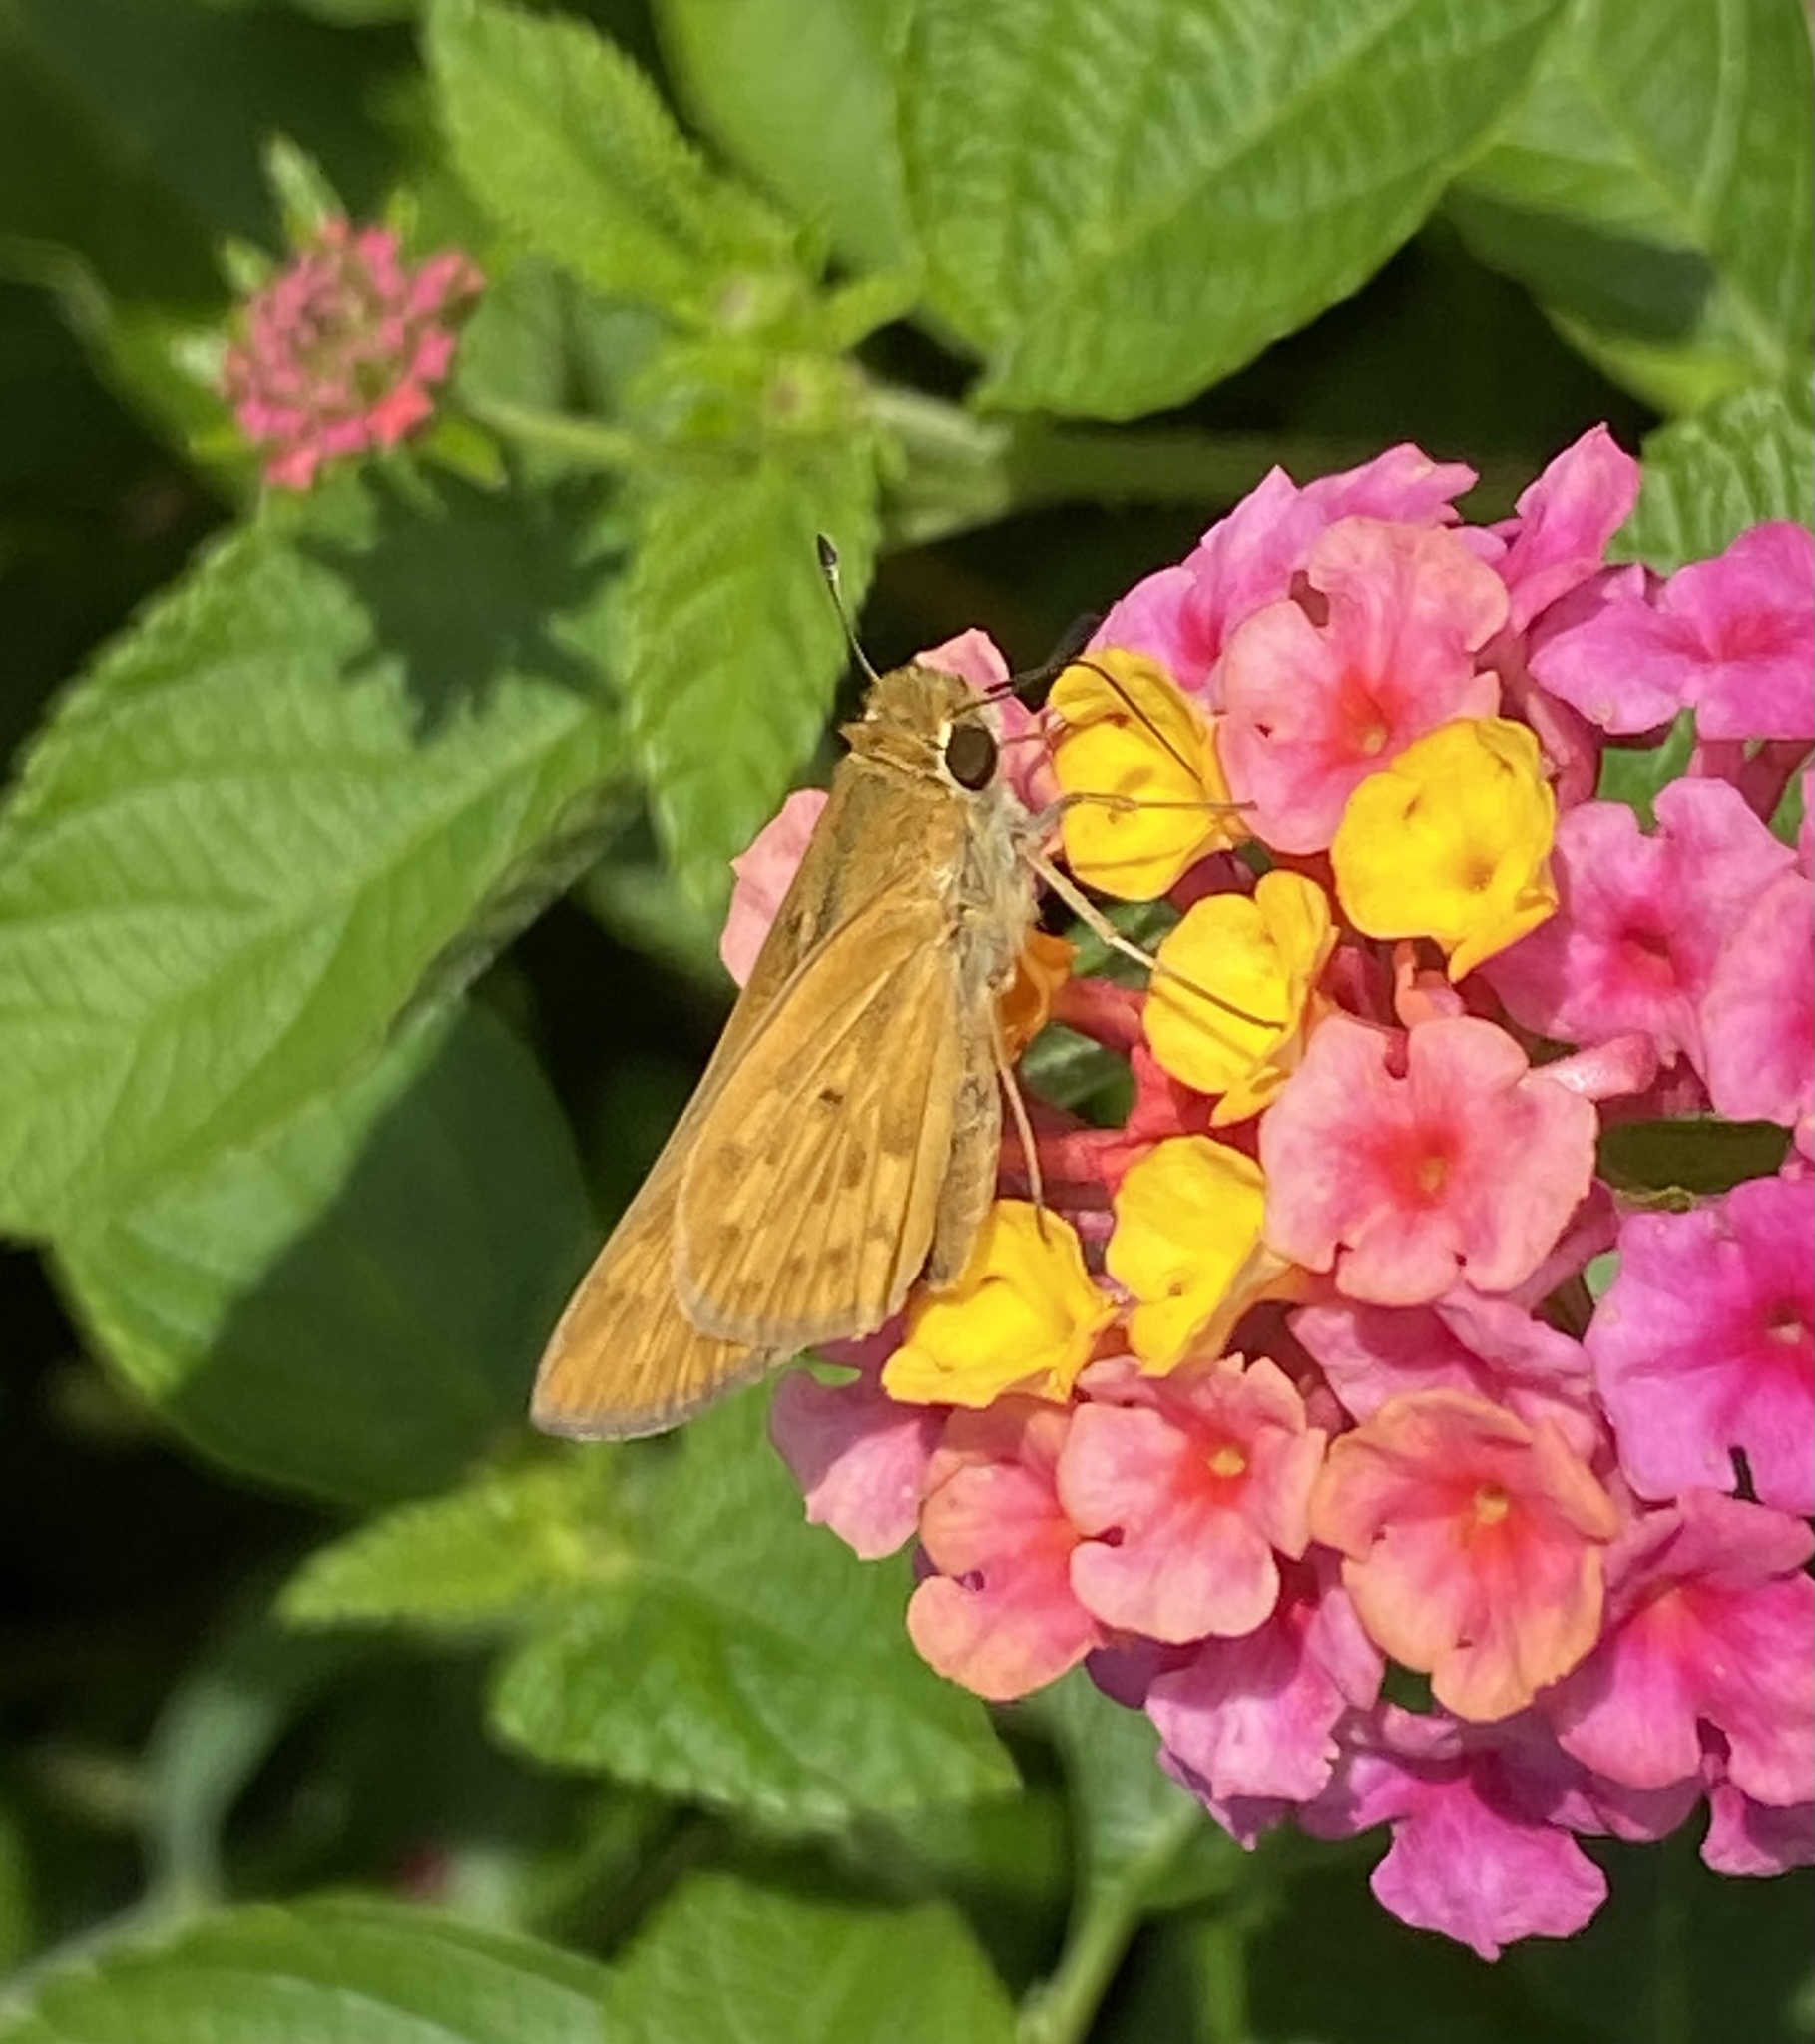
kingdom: Animalia
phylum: Arthropoda
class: Insecta
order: Lepidoptera
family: Hesperiidae
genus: Hylephila
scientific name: Hylephila phyleus
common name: Fiery skipper
